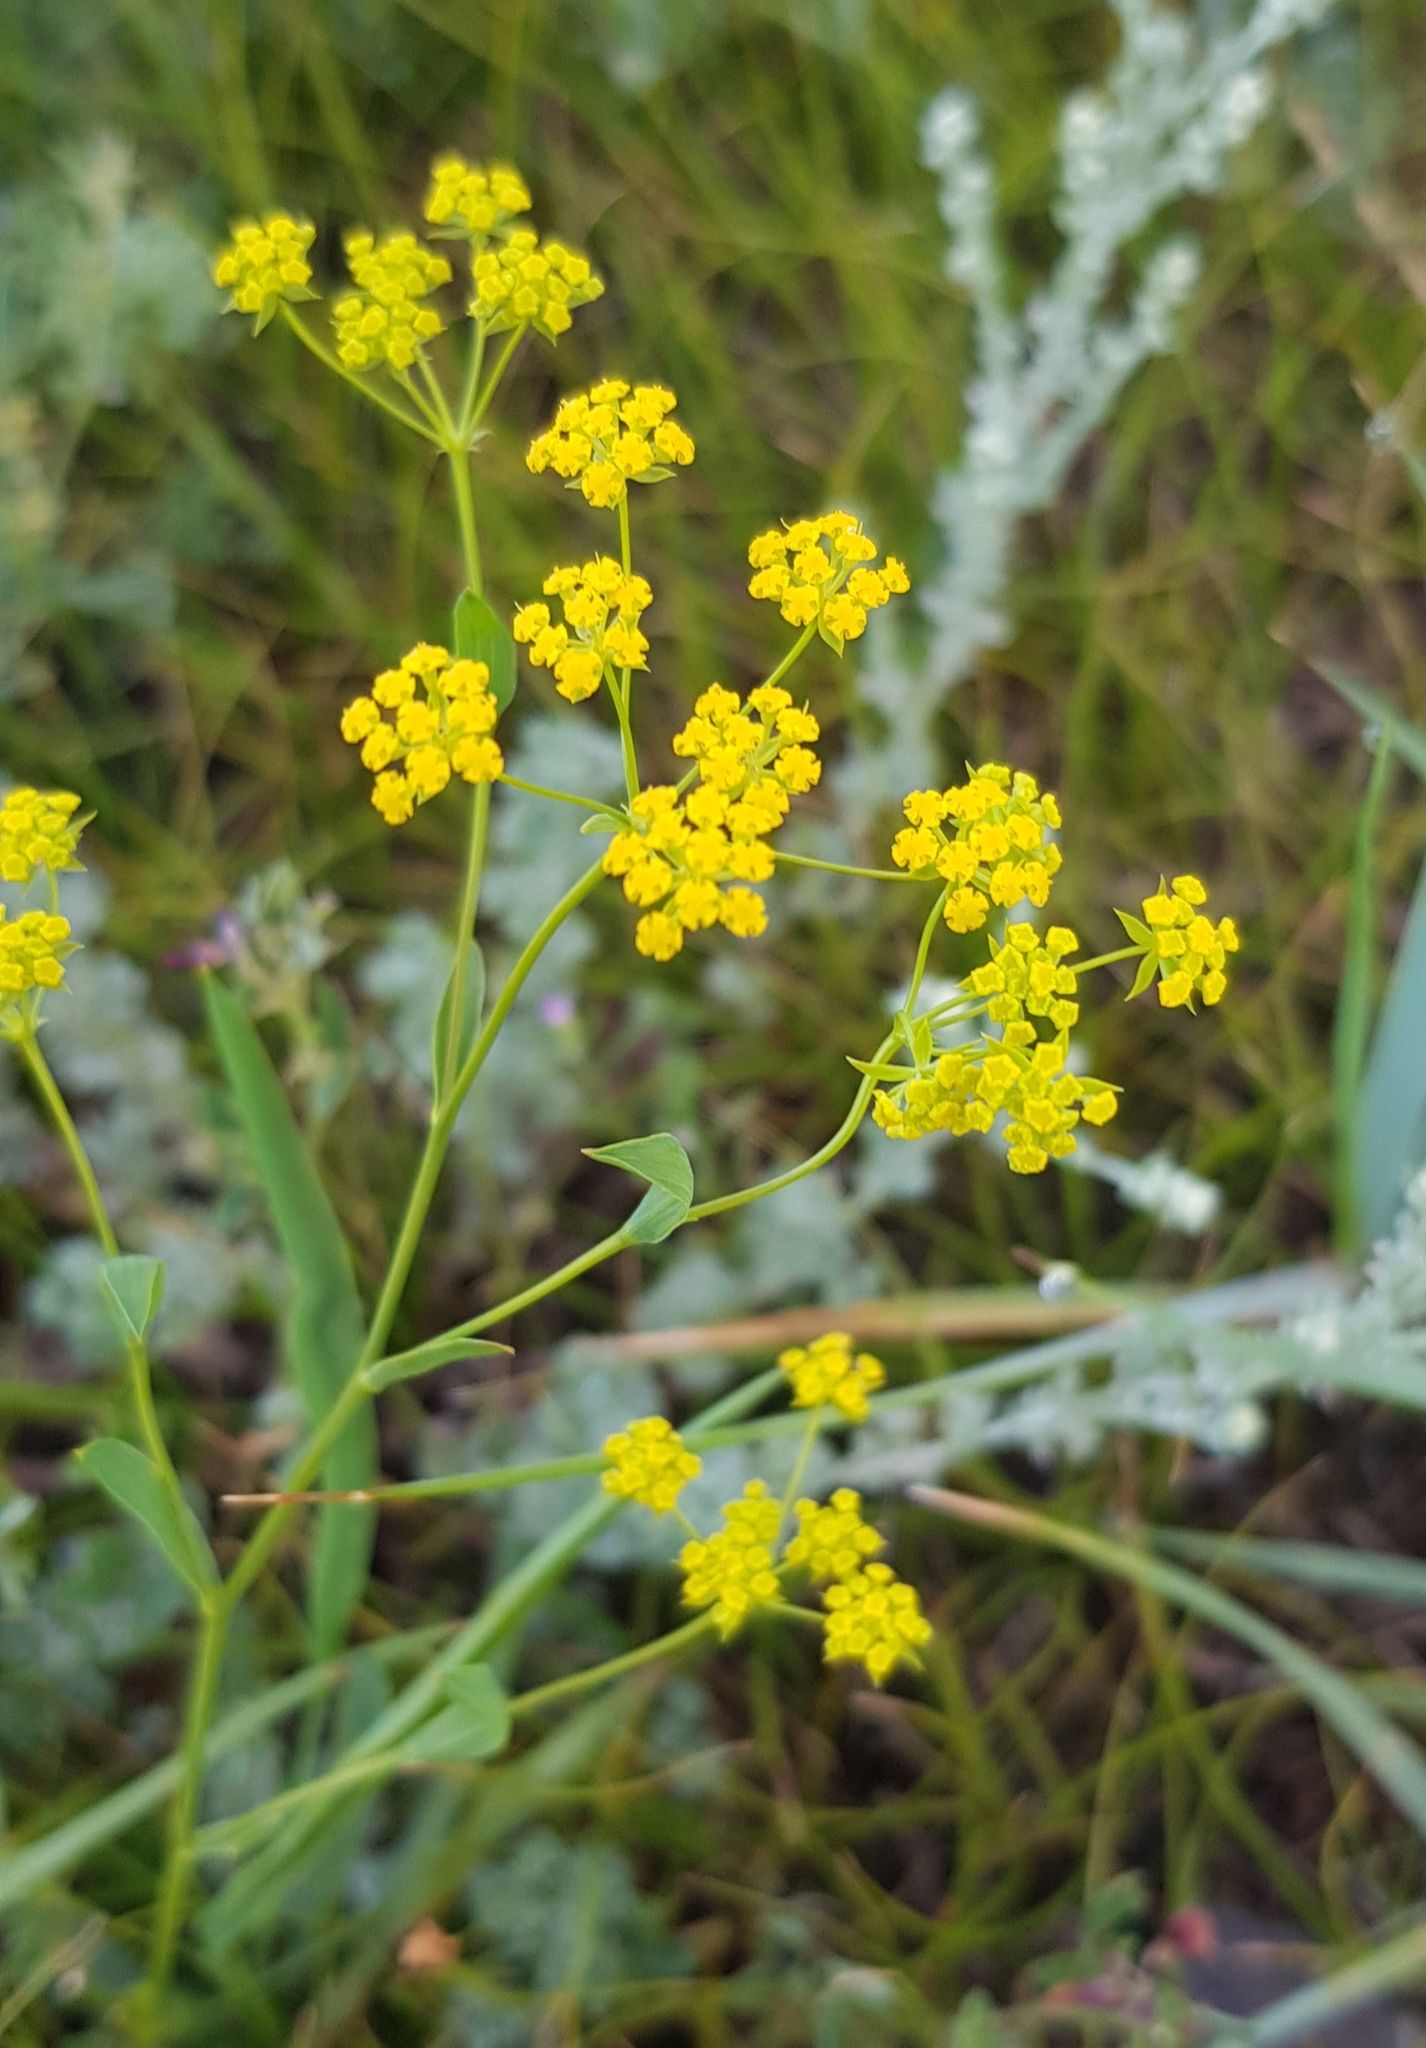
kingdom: Plantae
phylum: Tracheophyta
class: Magnoliopsida
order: Apiales
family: Apiaceae
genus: Bupleurum
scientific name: Bupleurum scorzonerifolium
